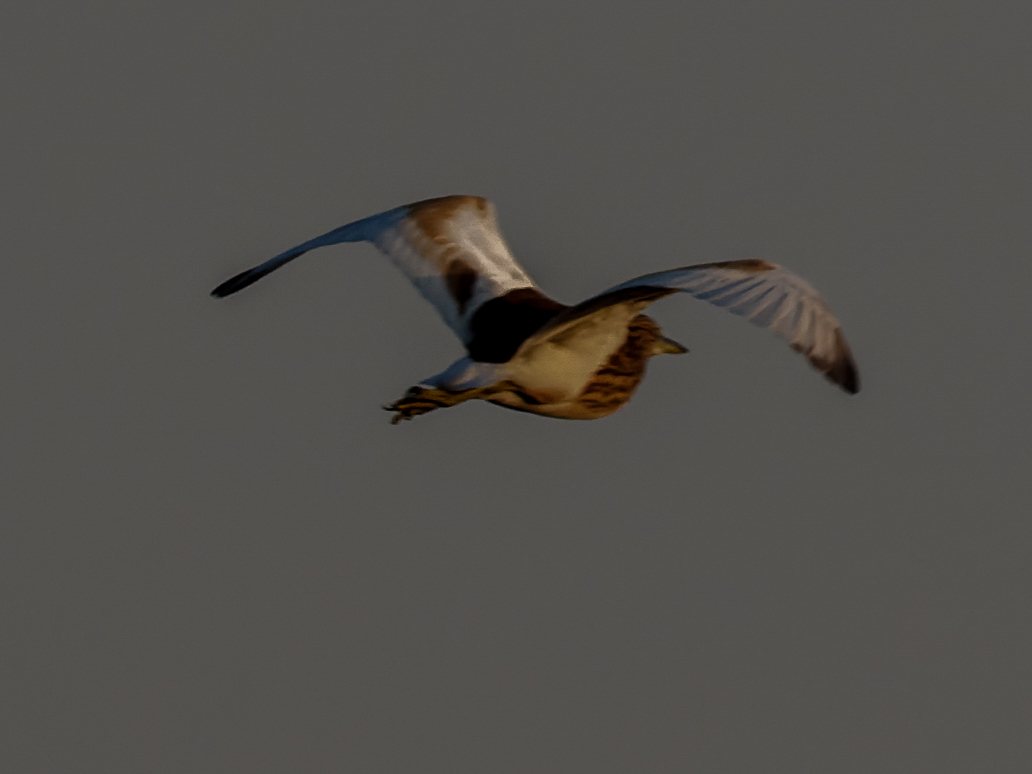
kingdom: Animalia
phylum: Chordata
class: Aves
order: Pelecaniformes
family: Ardeidae
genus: Ardeola
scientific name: Ardeola ralloides
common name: Squacco heron
